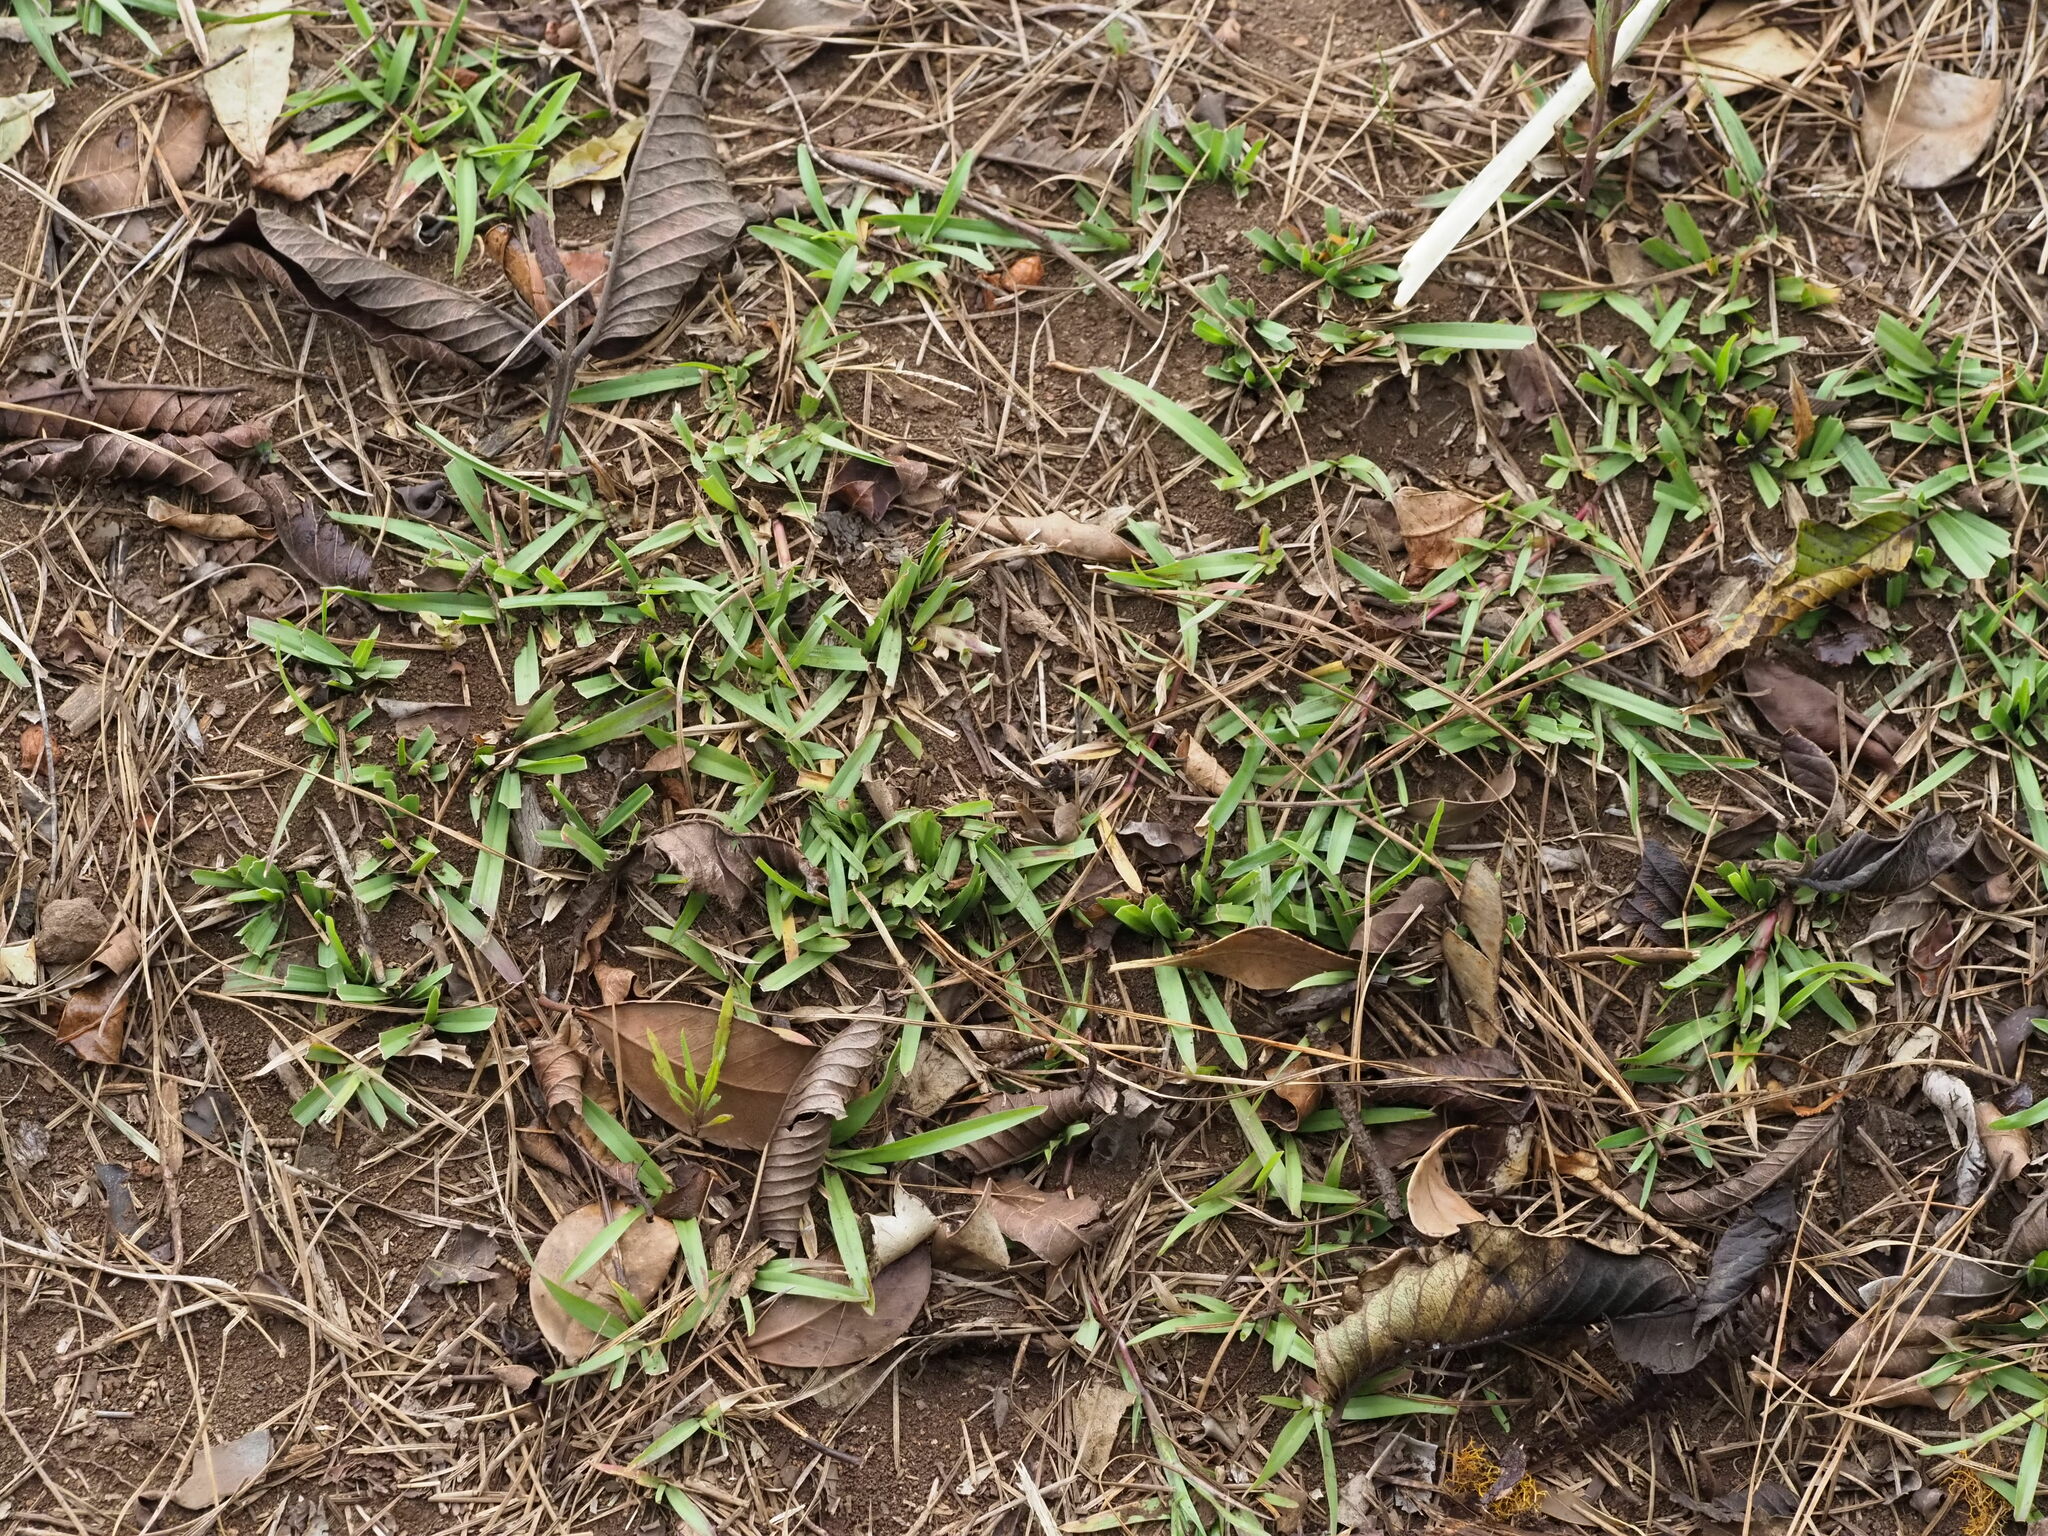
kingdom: Plantae
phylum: Tracheophyta
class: Liliopsida
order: Poales
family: Poaceae
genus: Axonopus
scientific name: Axonopus fissifolius
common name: Common carpetgrass
